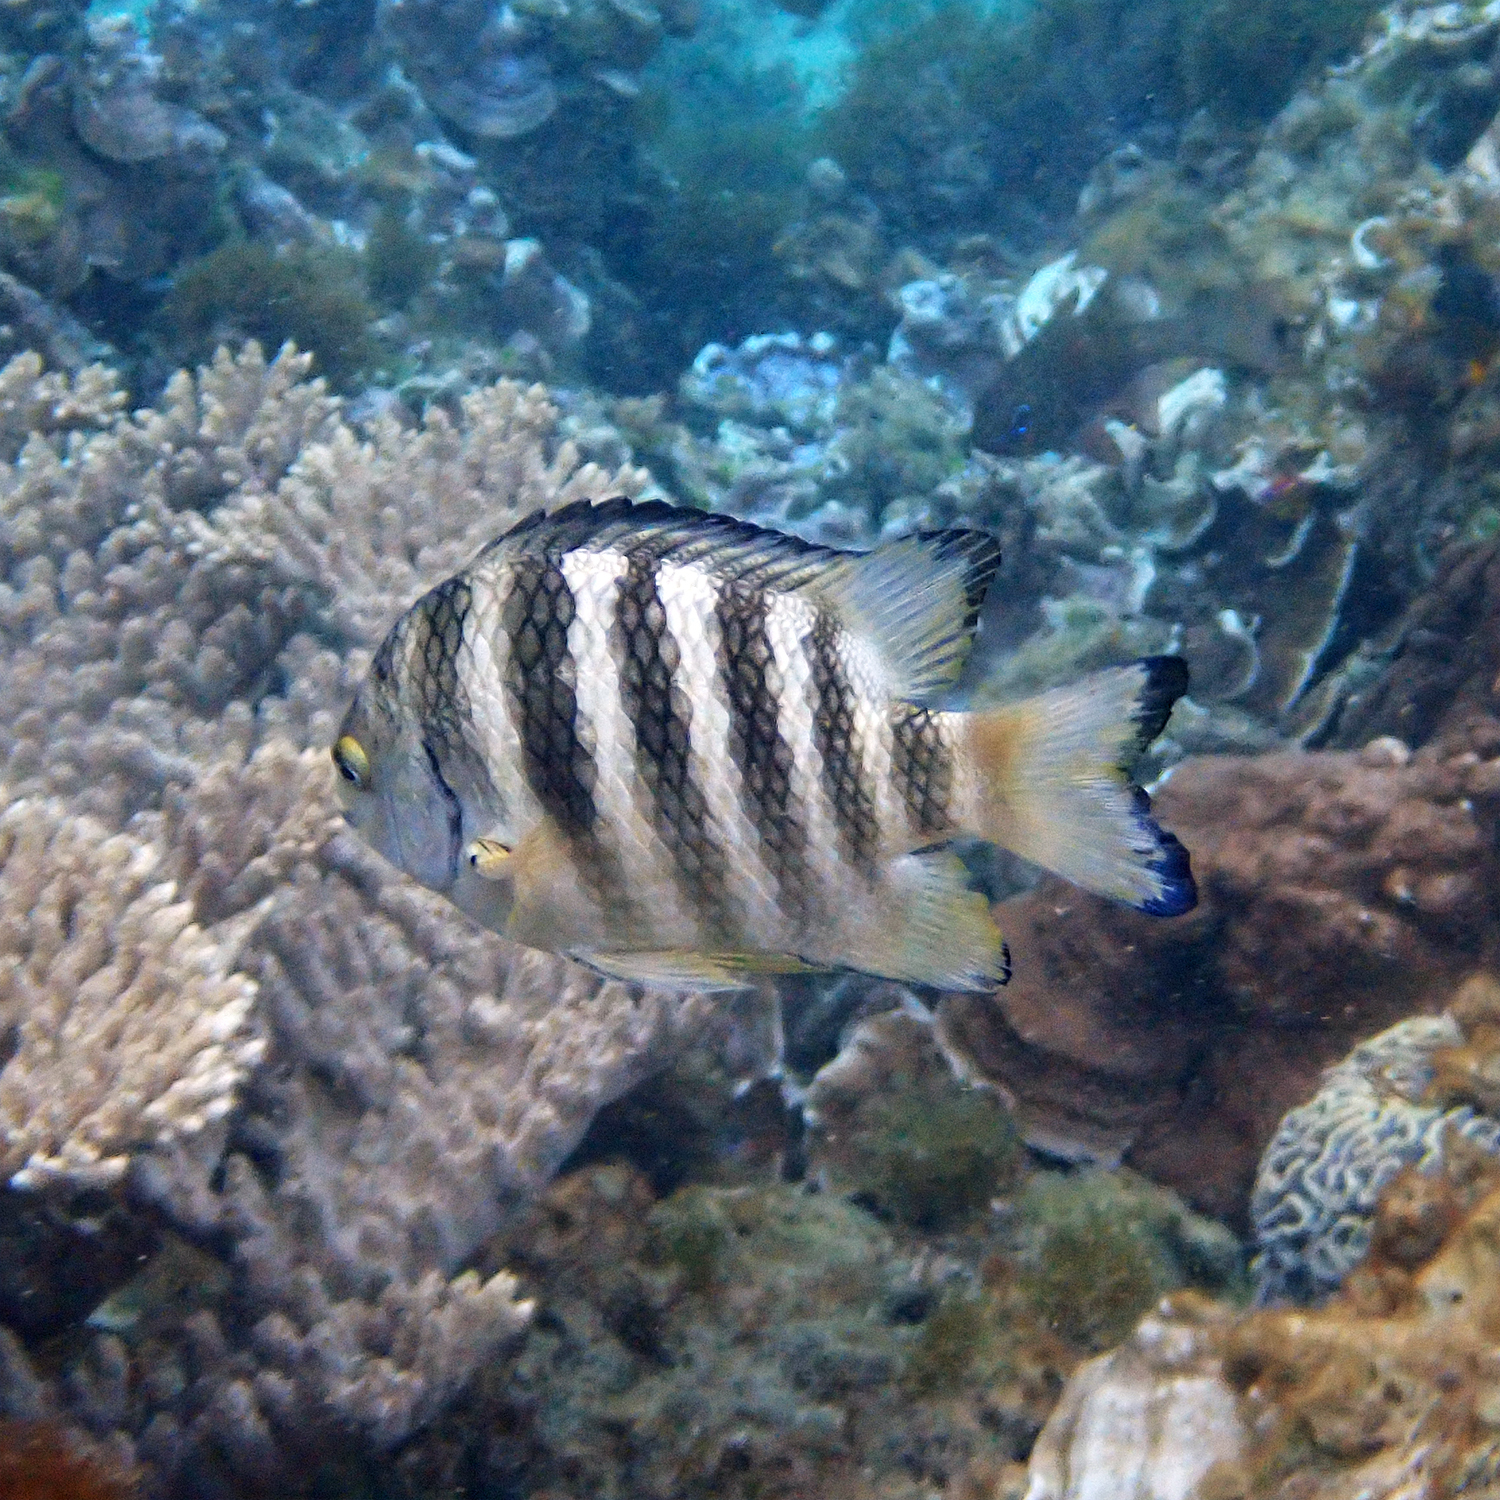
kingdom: Animalia
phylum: Chordata
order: Perciformes
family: Pomacentridae
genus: Abudefduf
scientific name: Abudefduf septemfasciatus
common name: Banded sergeant
